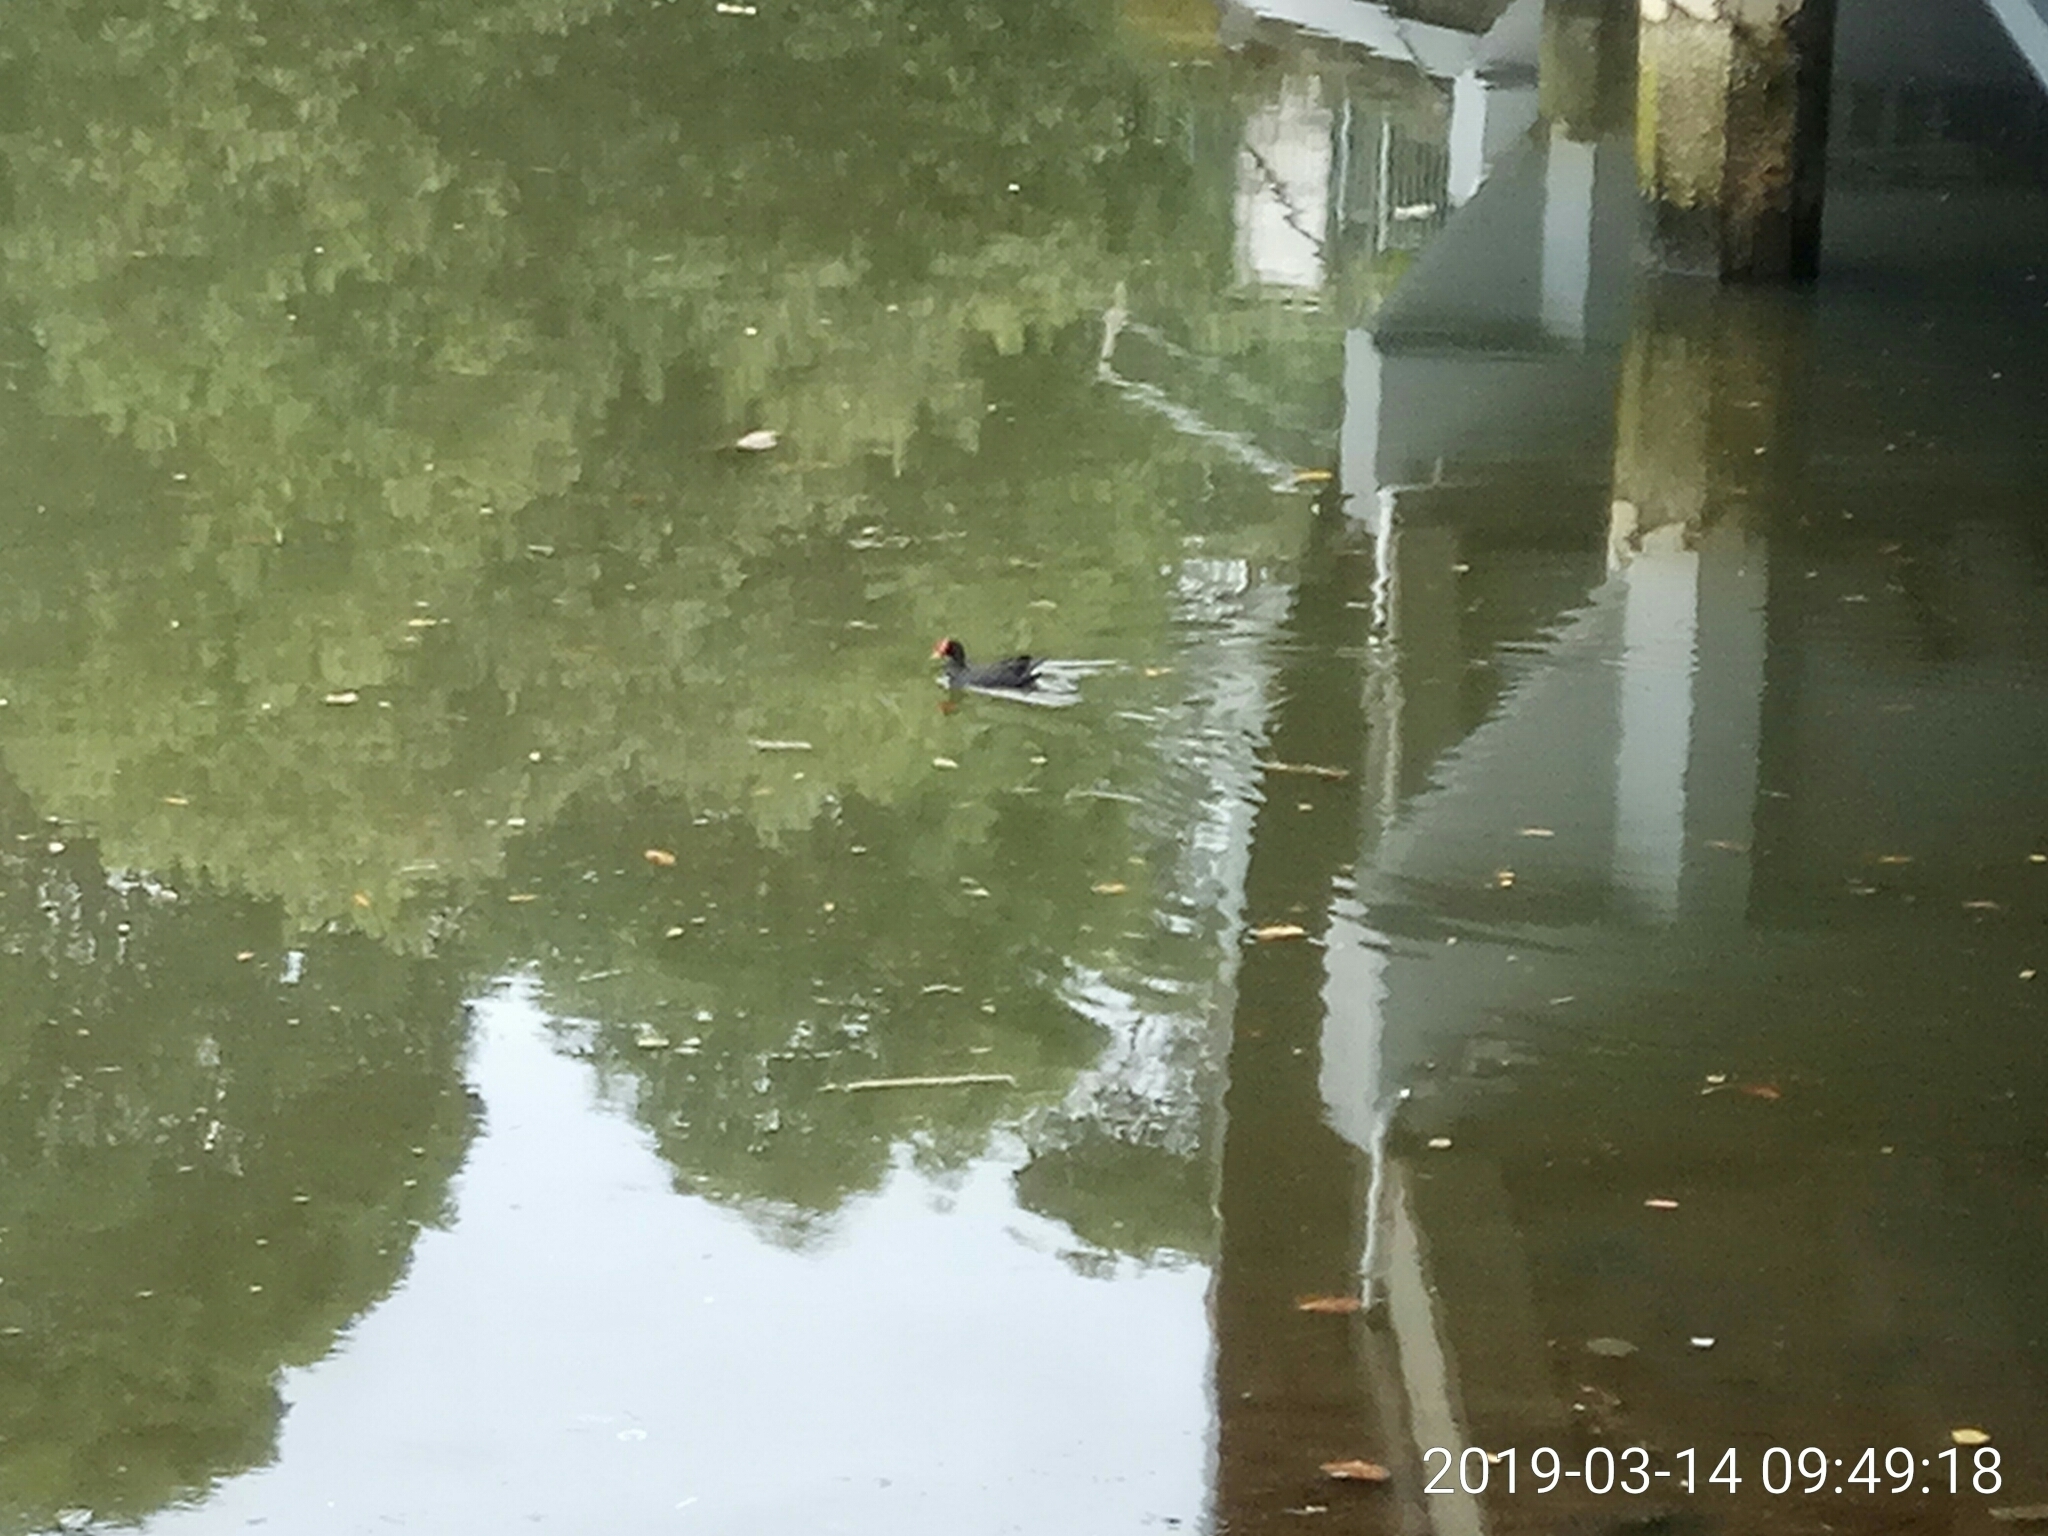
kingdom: Animalia
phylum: Chordata
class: Aves
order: Gruiformes
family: Rallidae
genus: Gallinula
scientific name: Gallinula tenebrosa
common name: Dusky moorhen
